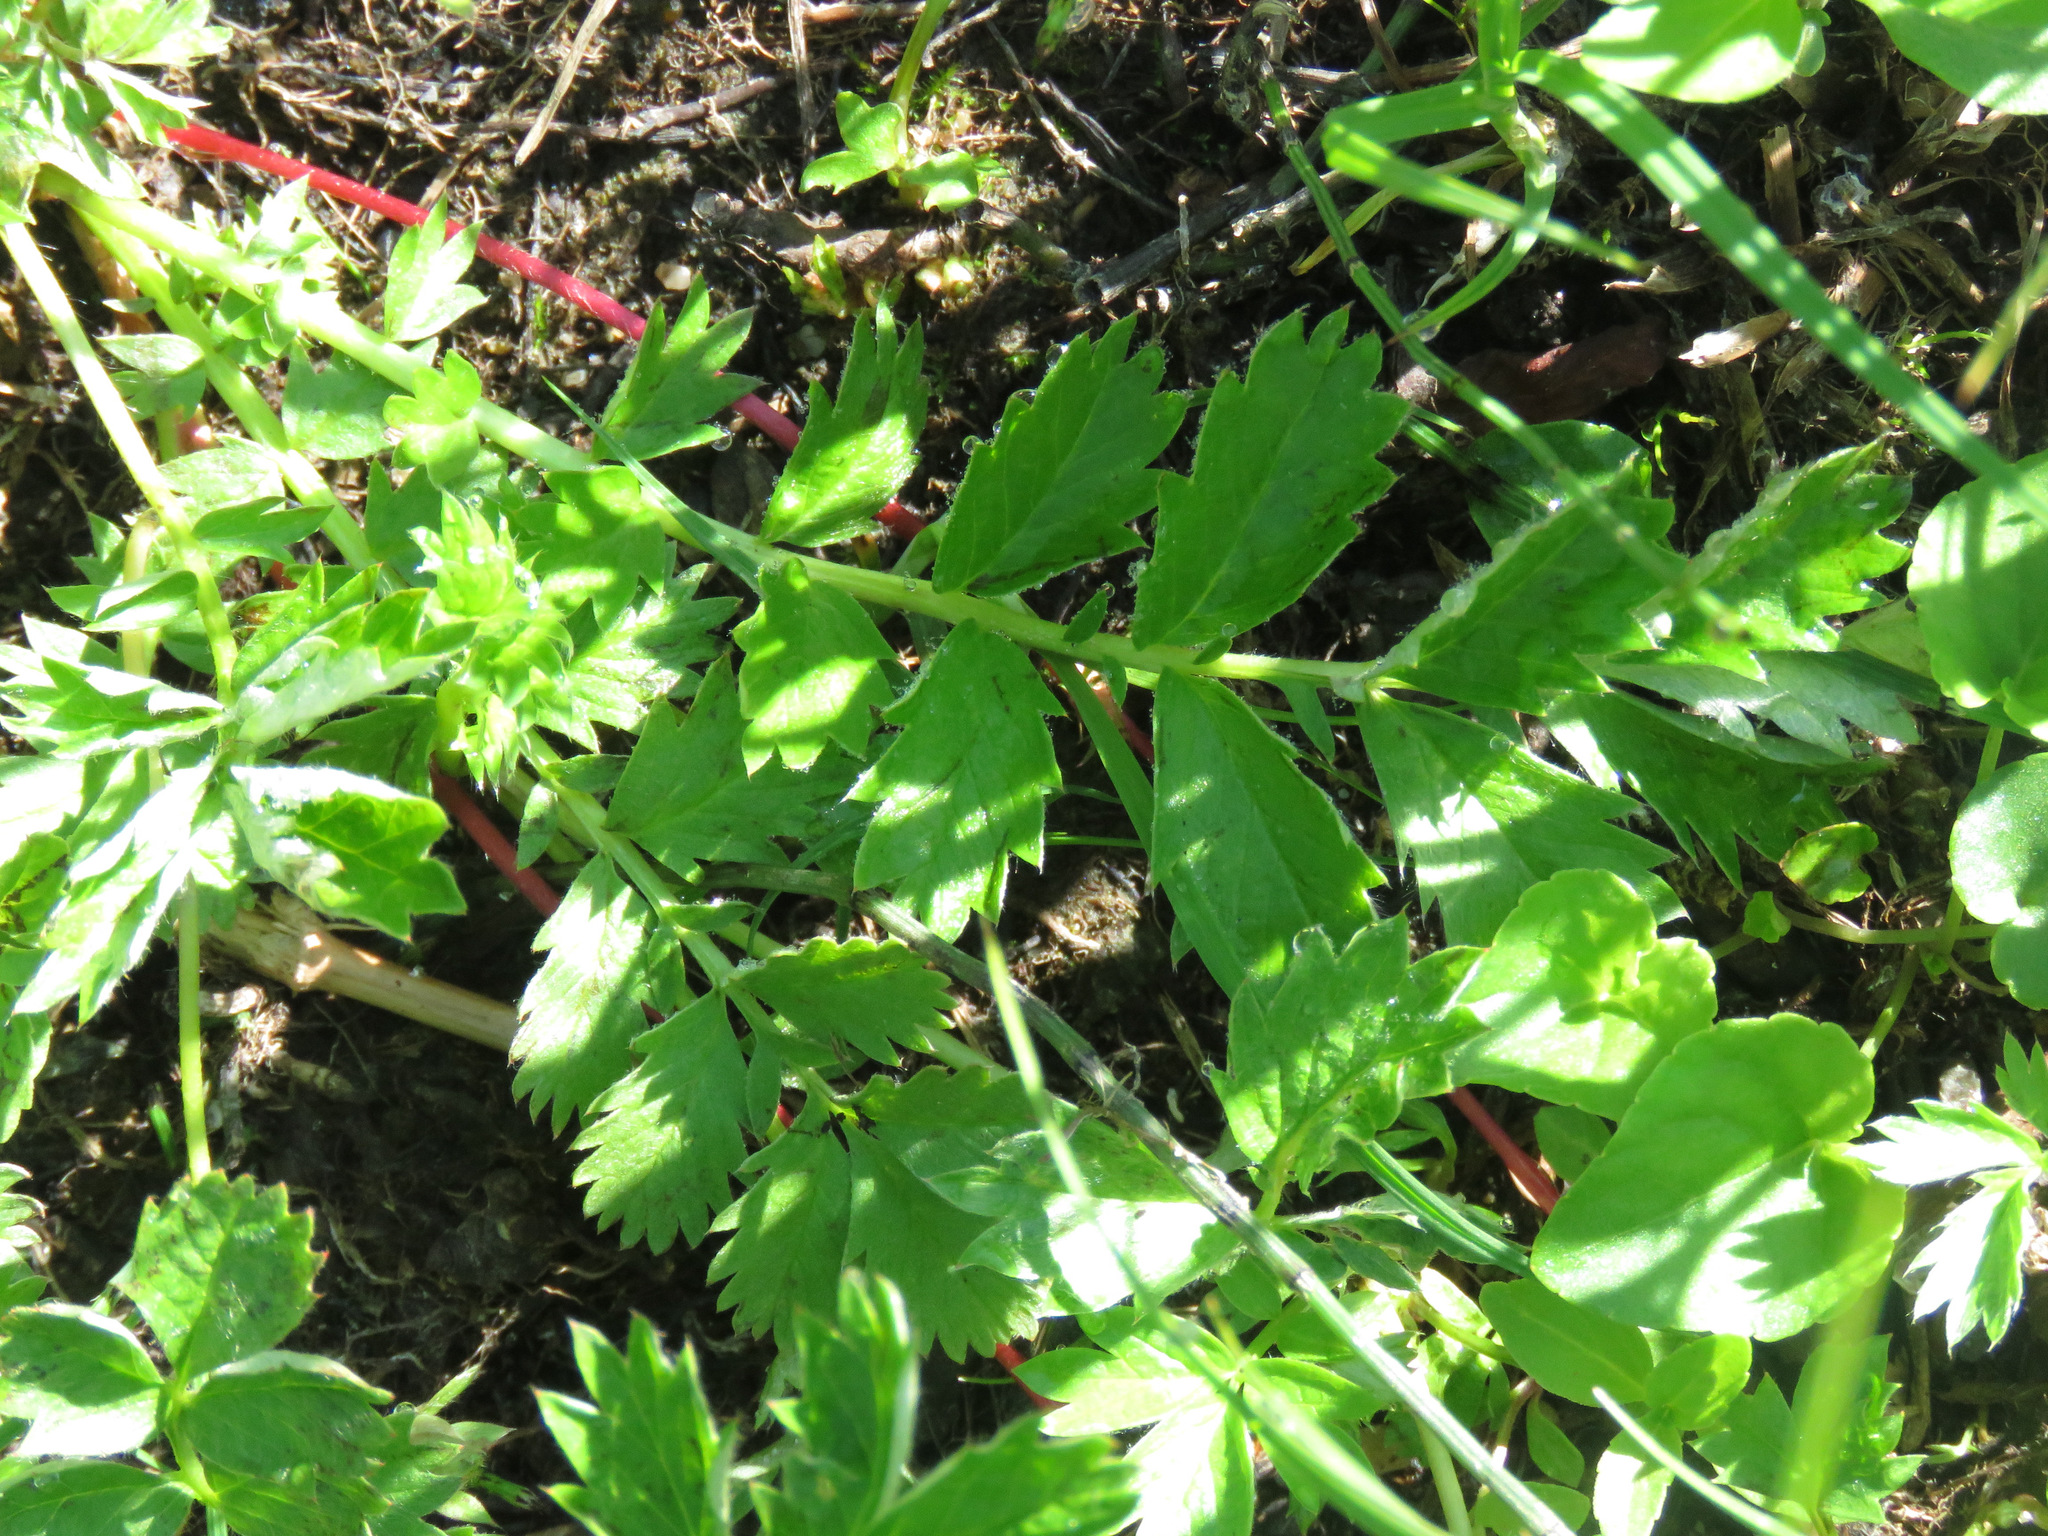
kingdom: Plantae
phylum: Tracheophyta
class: Magnoliopsida
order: Rosales
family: Rosaceae
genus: Argentina
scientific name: Argentina anserina
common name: Common silverweed
